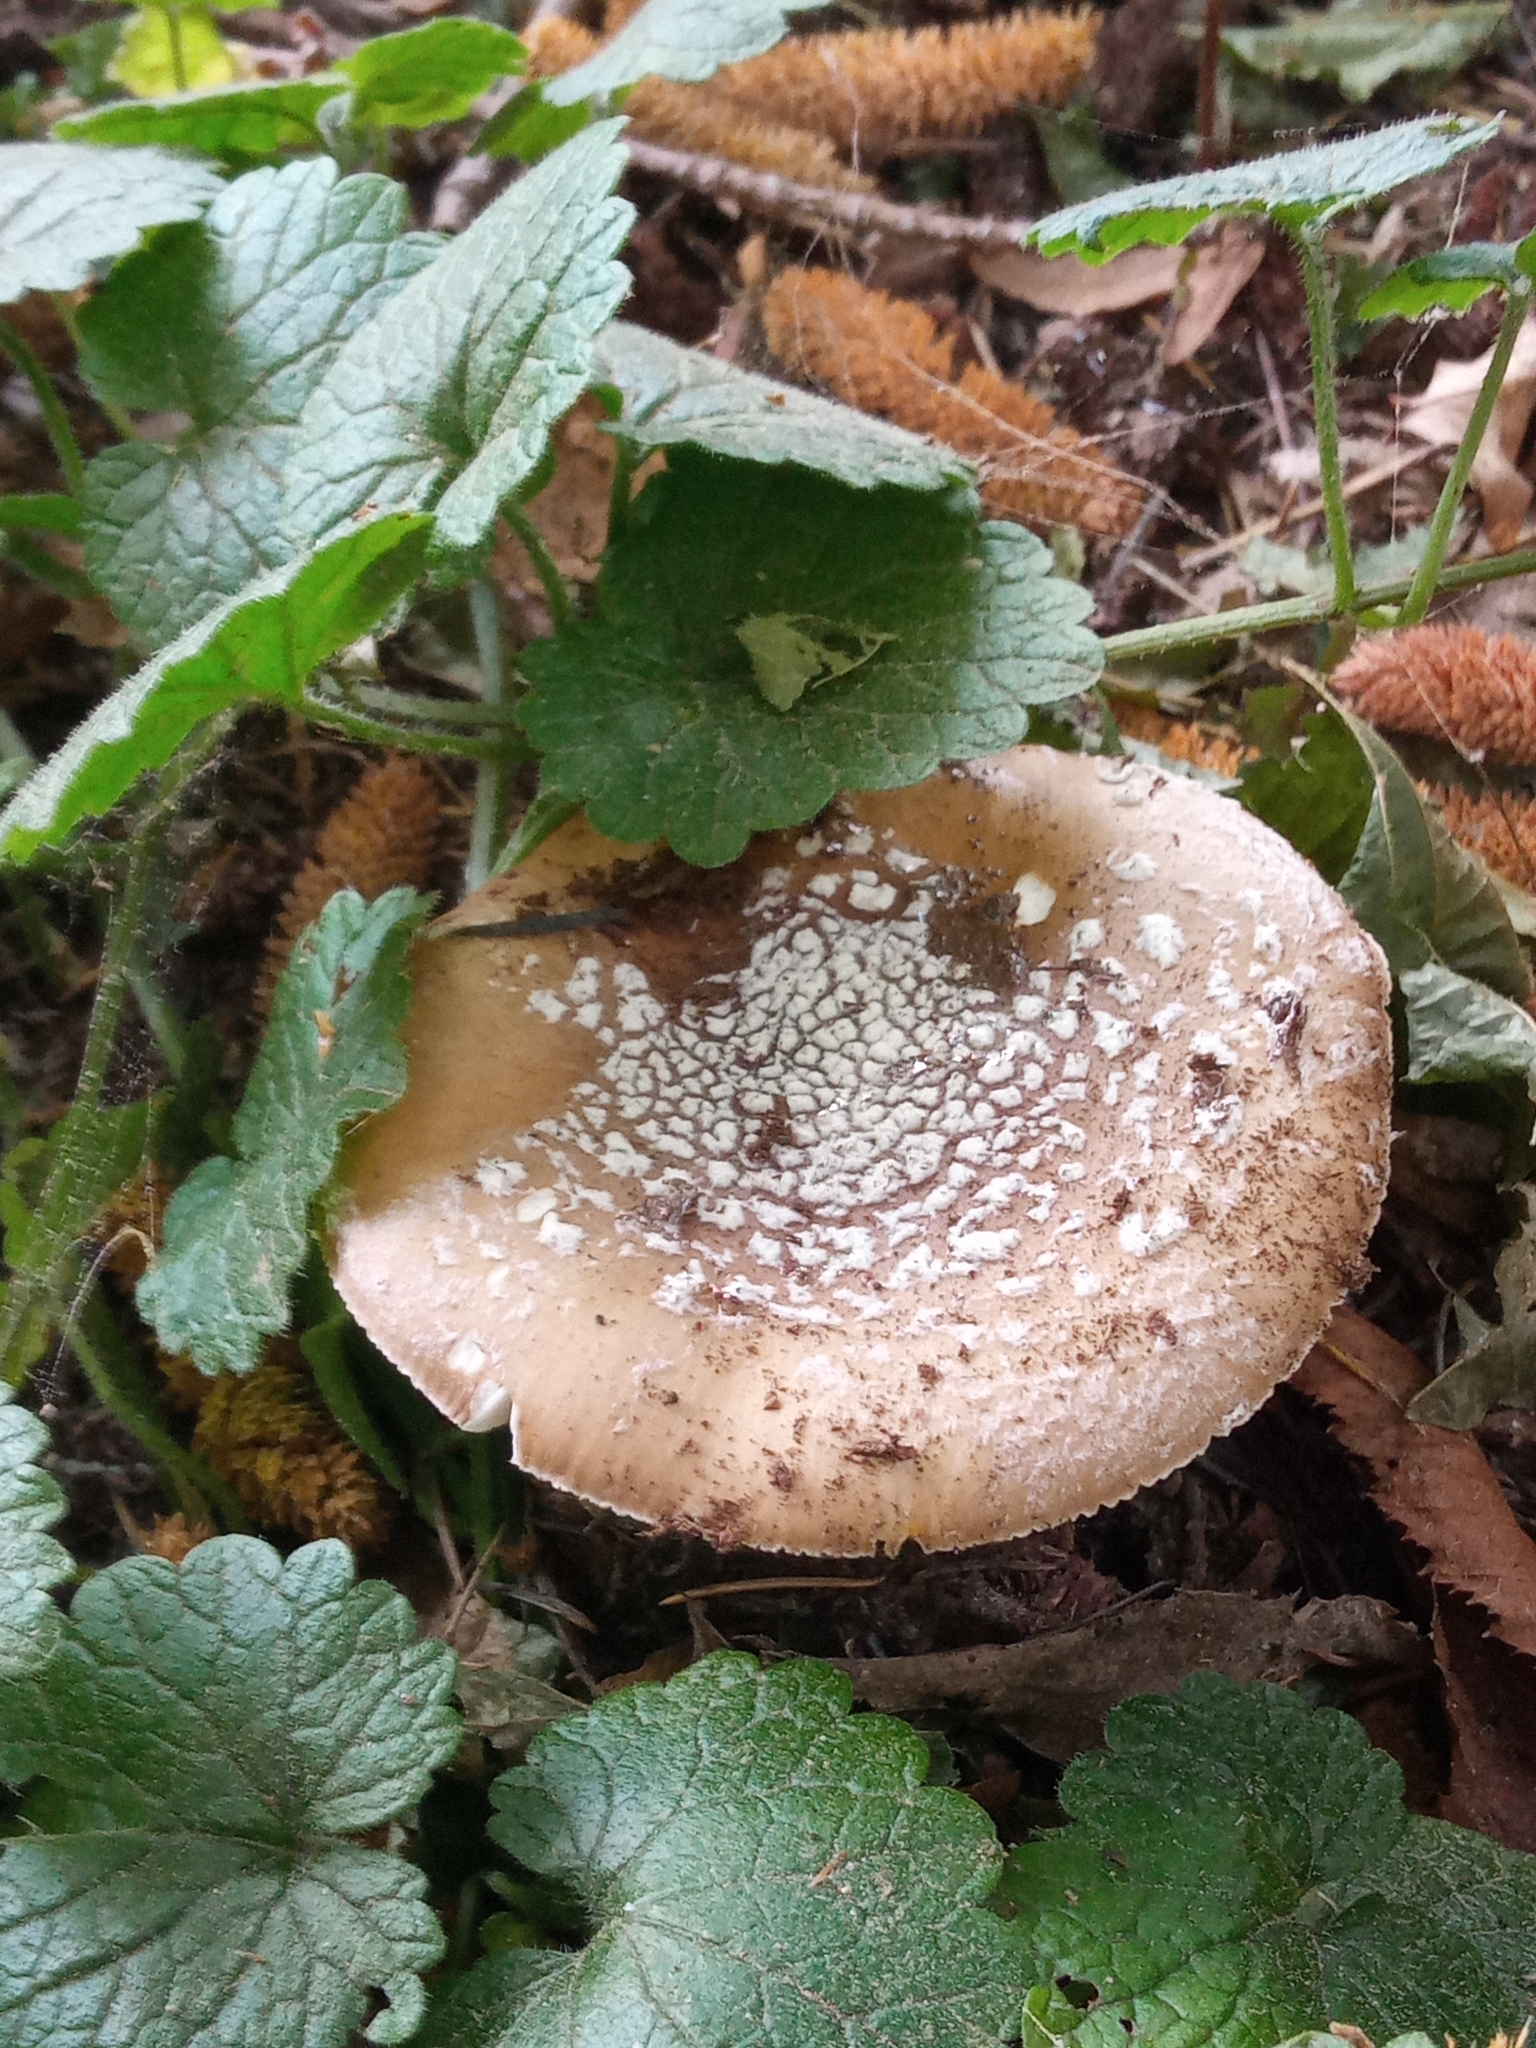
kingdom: Fungi
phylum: Basidiomycota
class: Agaricomycetes
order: Agaricales
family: Amanitaceae
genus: Amanita
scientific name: Amanita pantherina
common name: Panthercap
